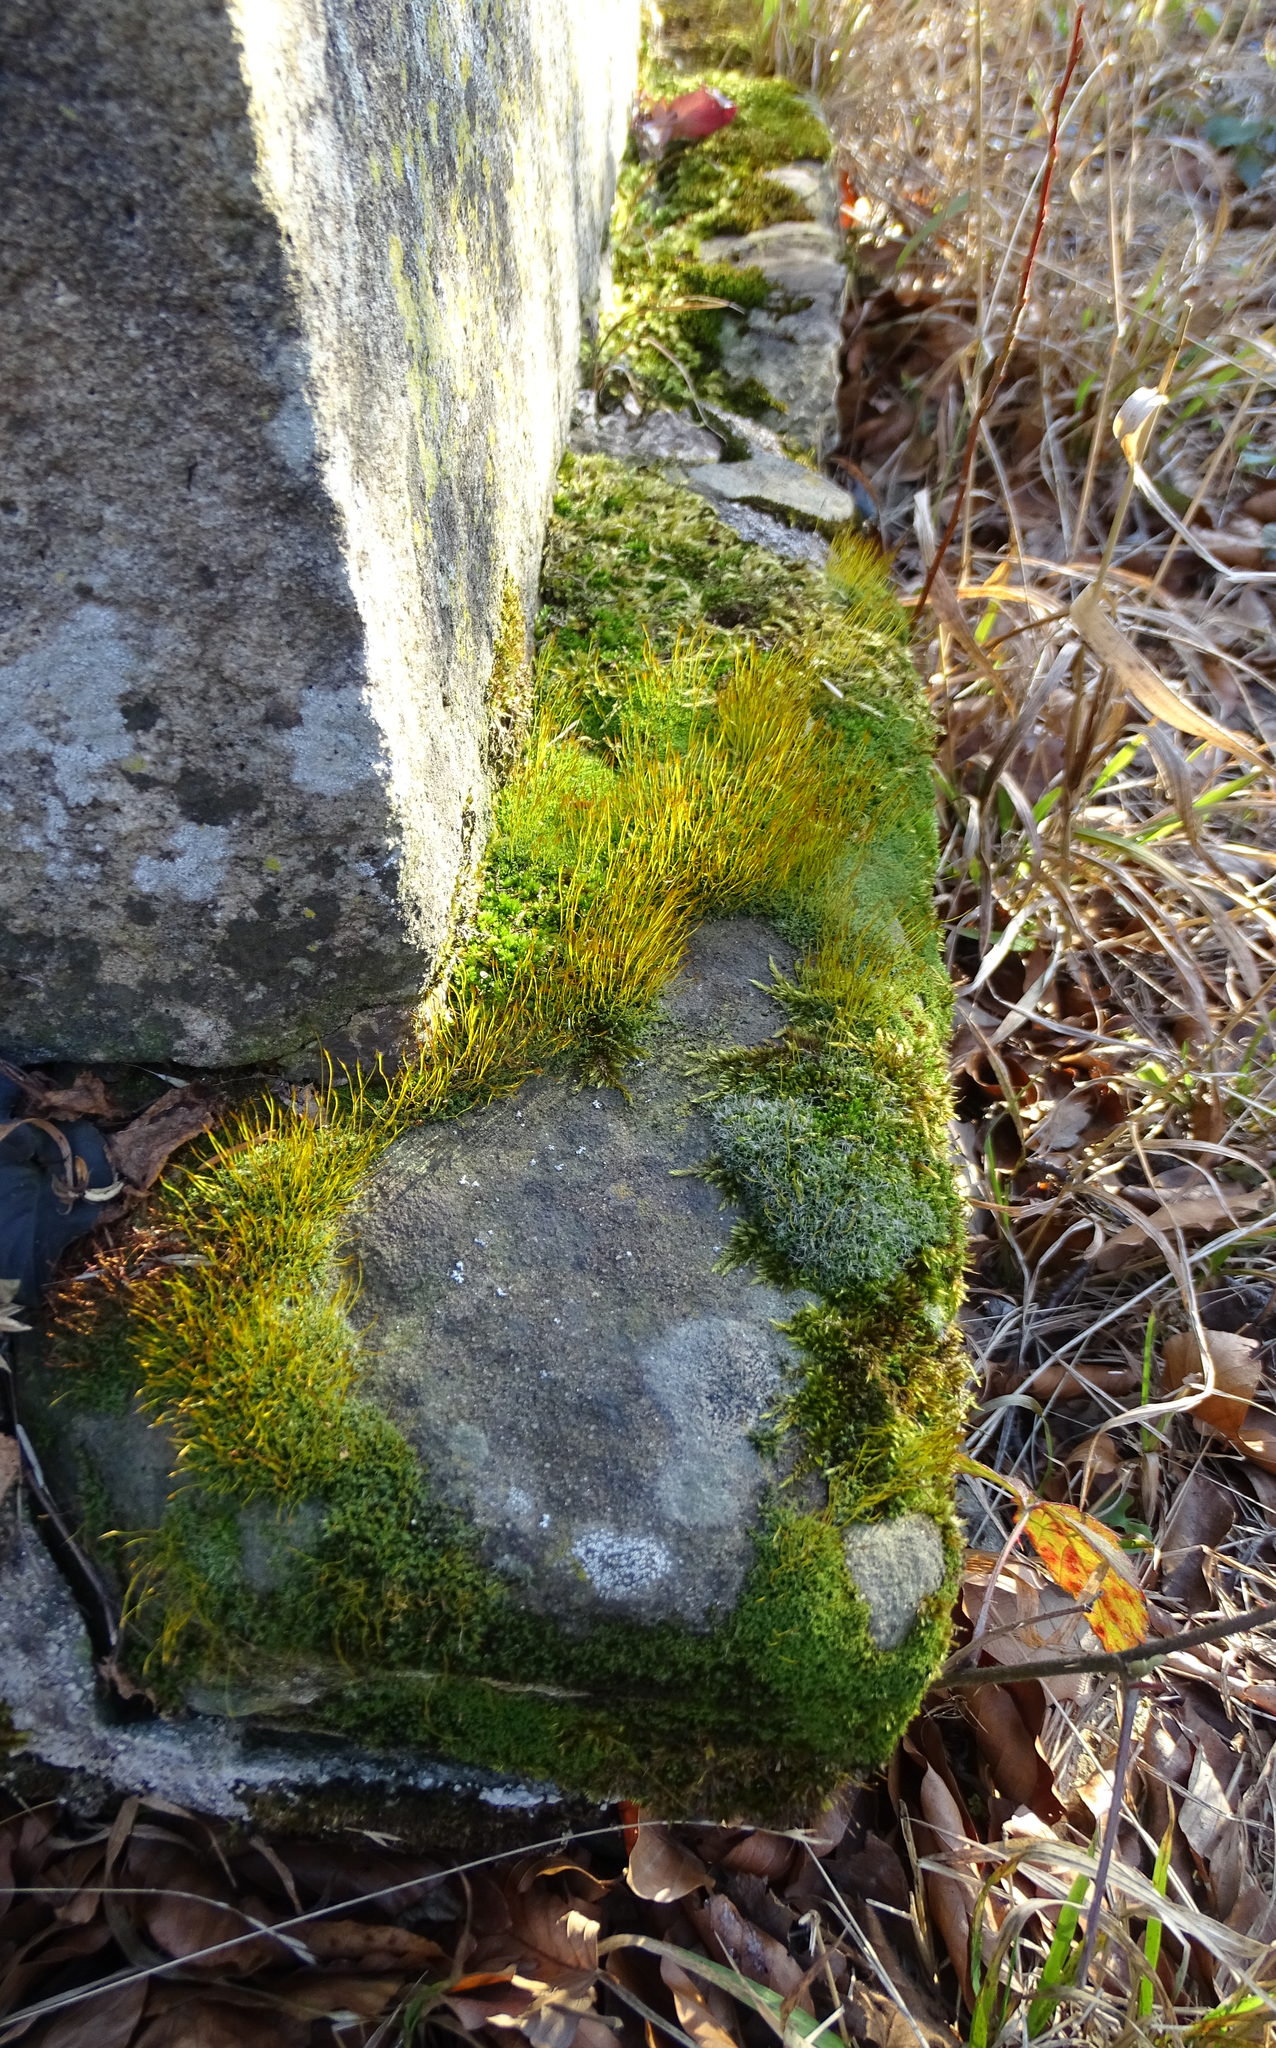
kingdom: Plantae
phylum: Bryophyta
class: Bryopsida
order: Grimmiales
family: Grimmiaceae
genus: Grimmia
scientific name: Grimmia pulvinata
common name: Grey-cushioned grimmia
